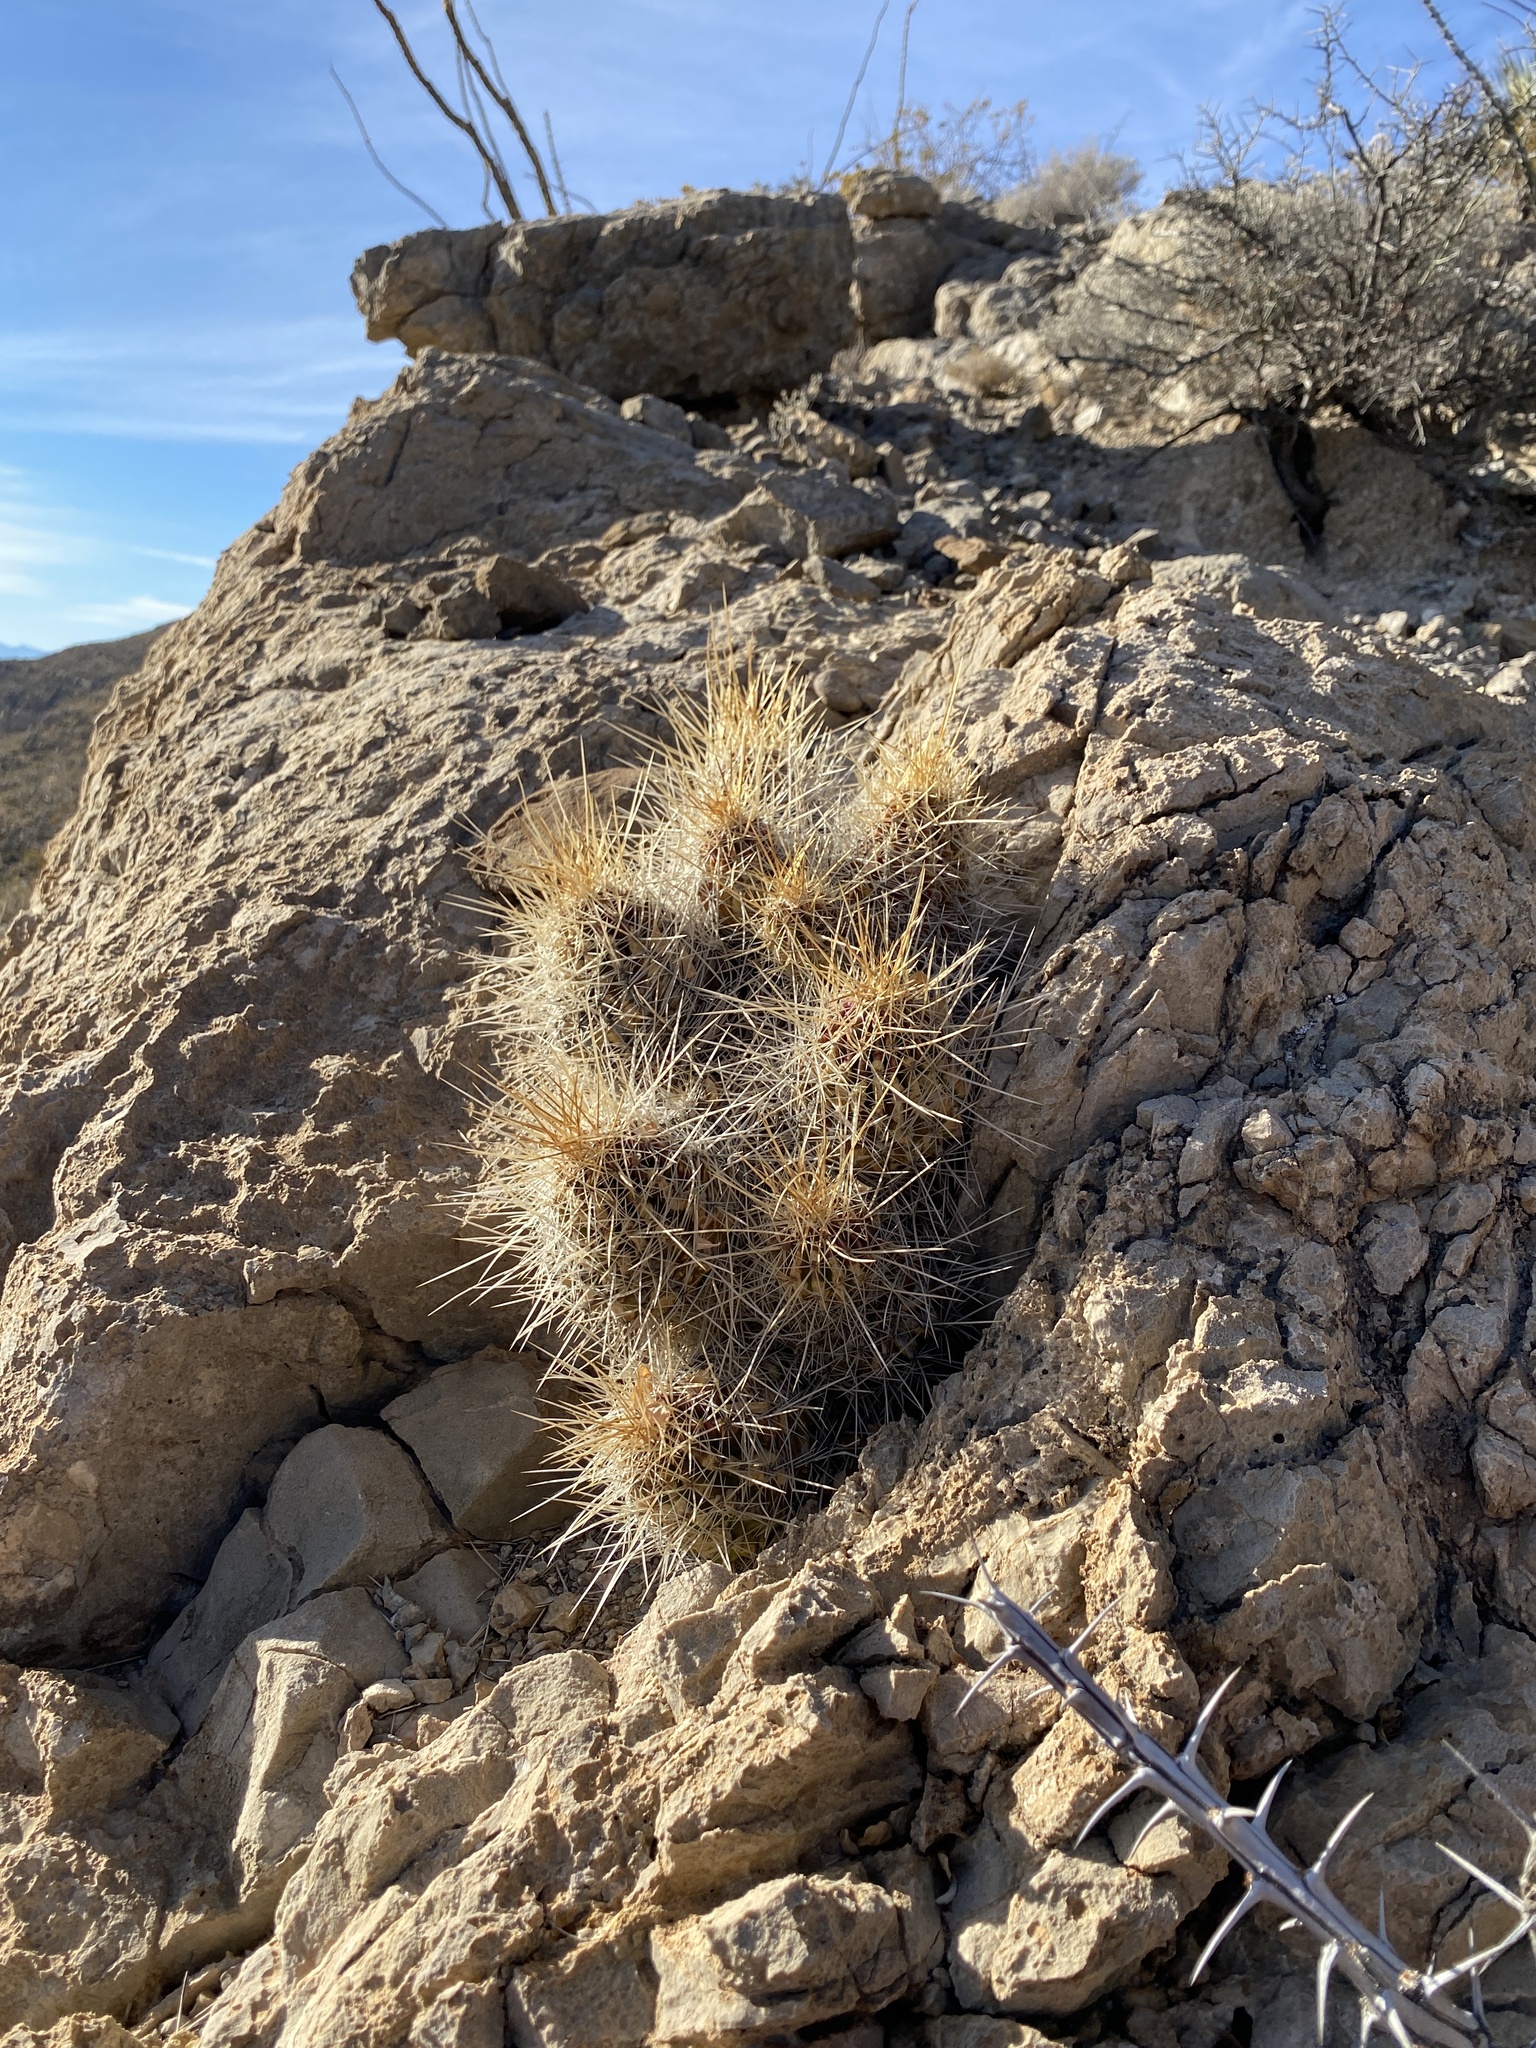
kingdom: Plantae
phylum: Tracheophyta
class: Magnoliopsida
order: Caryophyllales
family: Cactaceae
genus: Echinocereus
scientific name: Echinocereus stramineus
